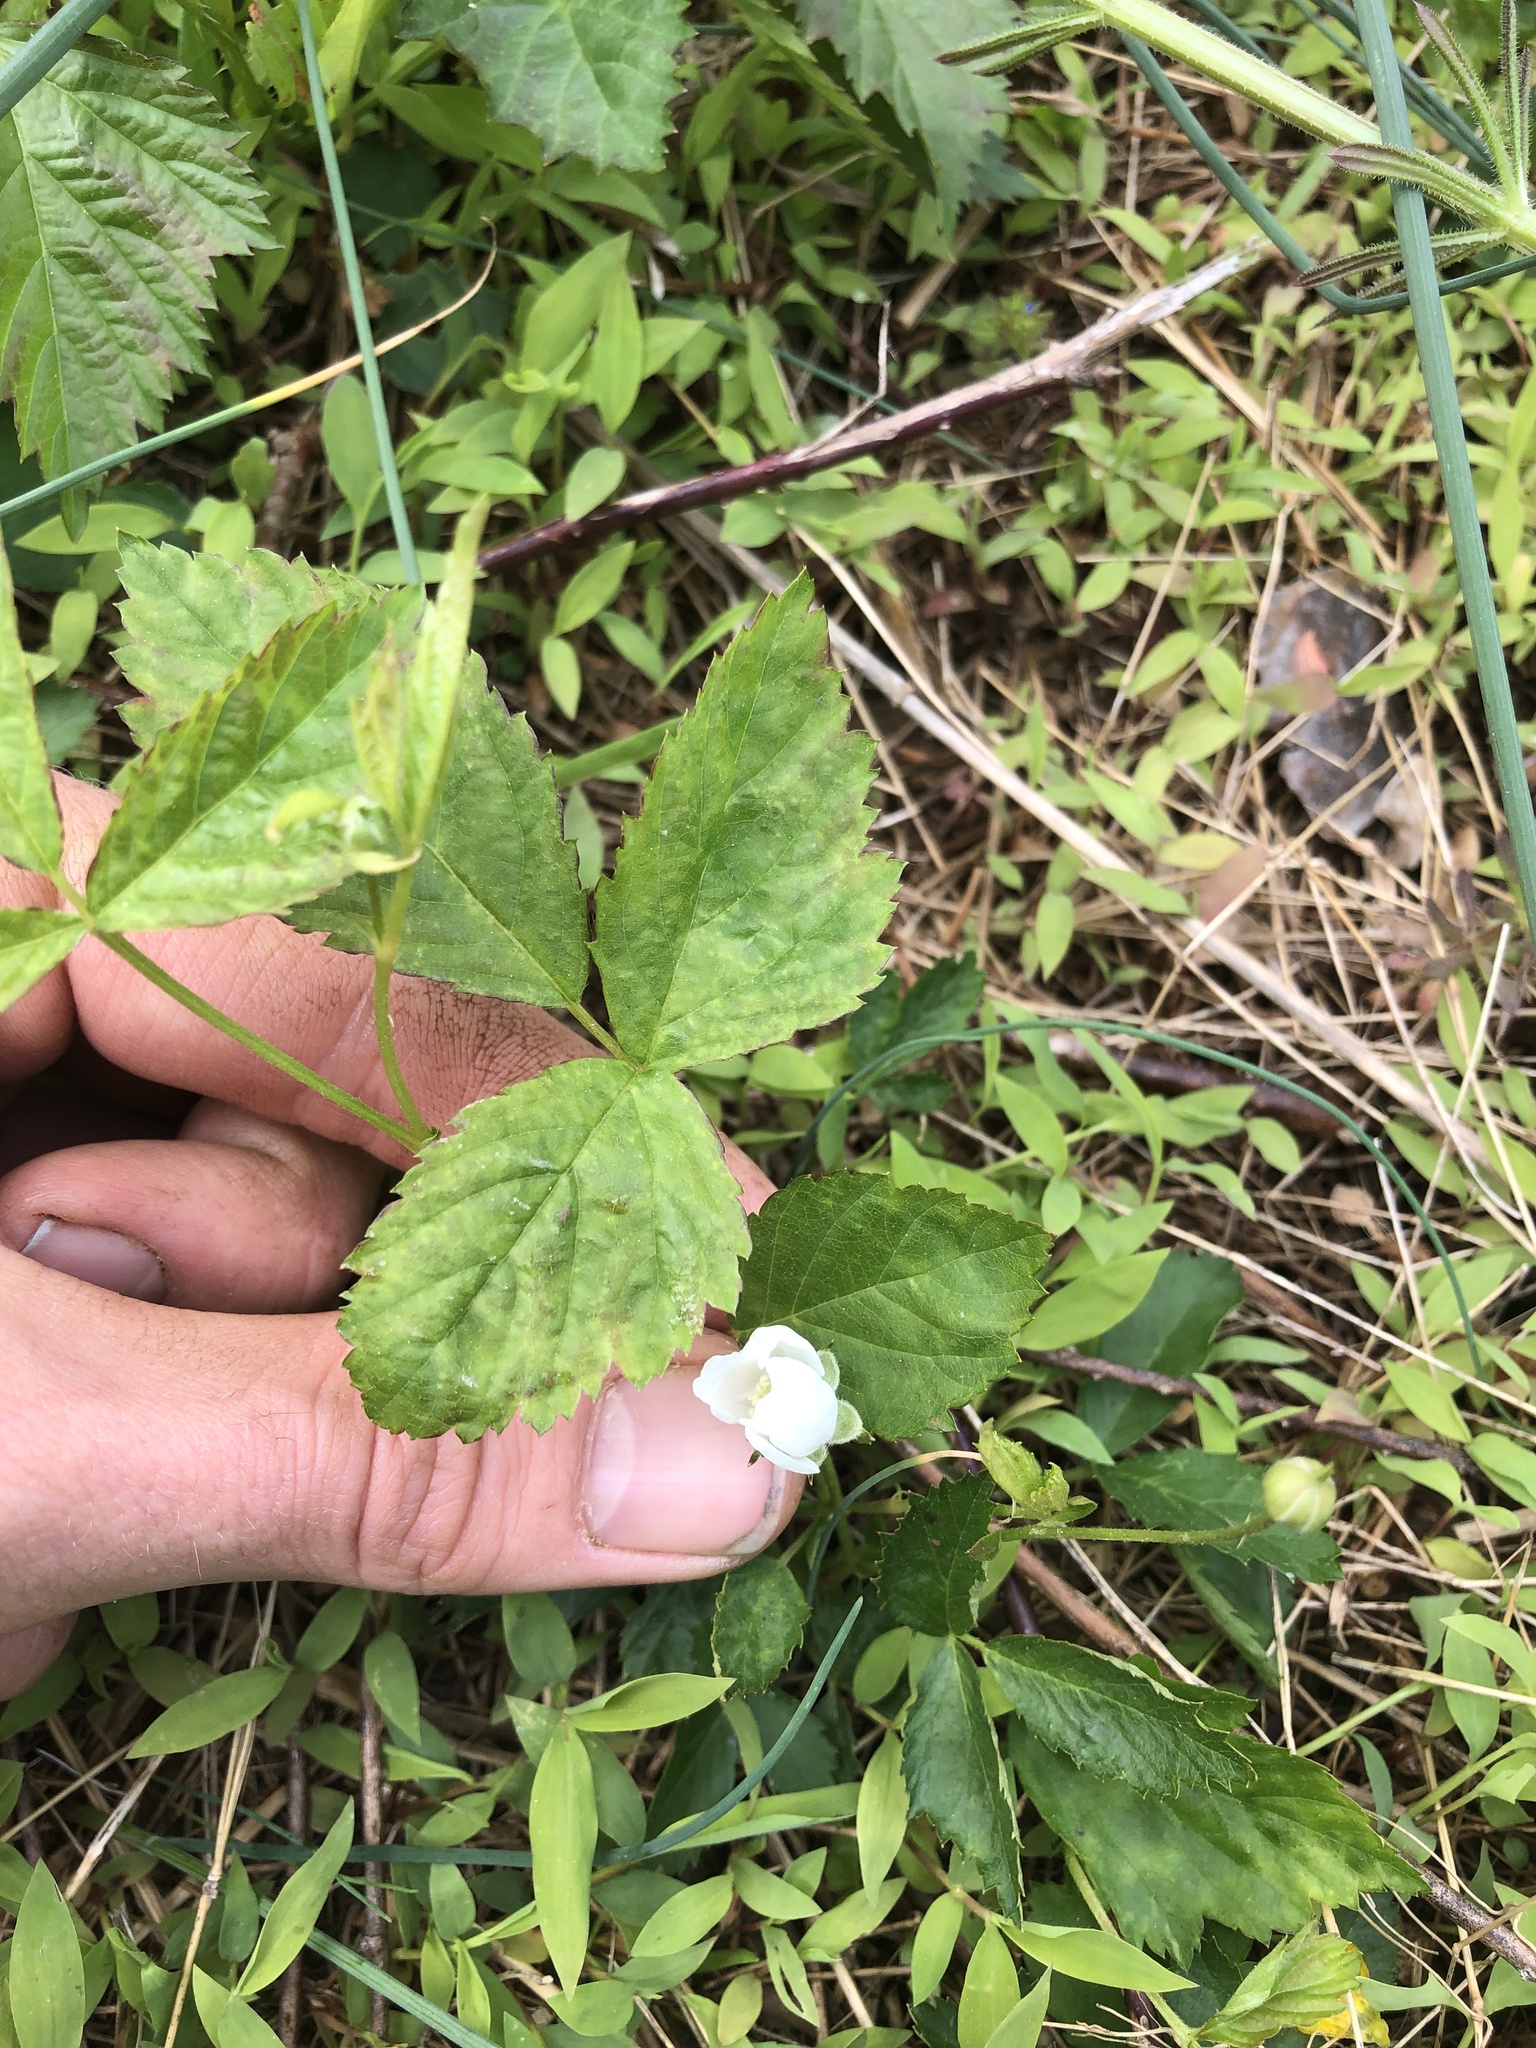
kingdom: Plantae
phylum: Tracheophyta
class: Magnoliopsida
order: Rosales
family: Rosaceae
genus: Rubus
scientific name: Rubus flagellaris
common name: American dewberry
